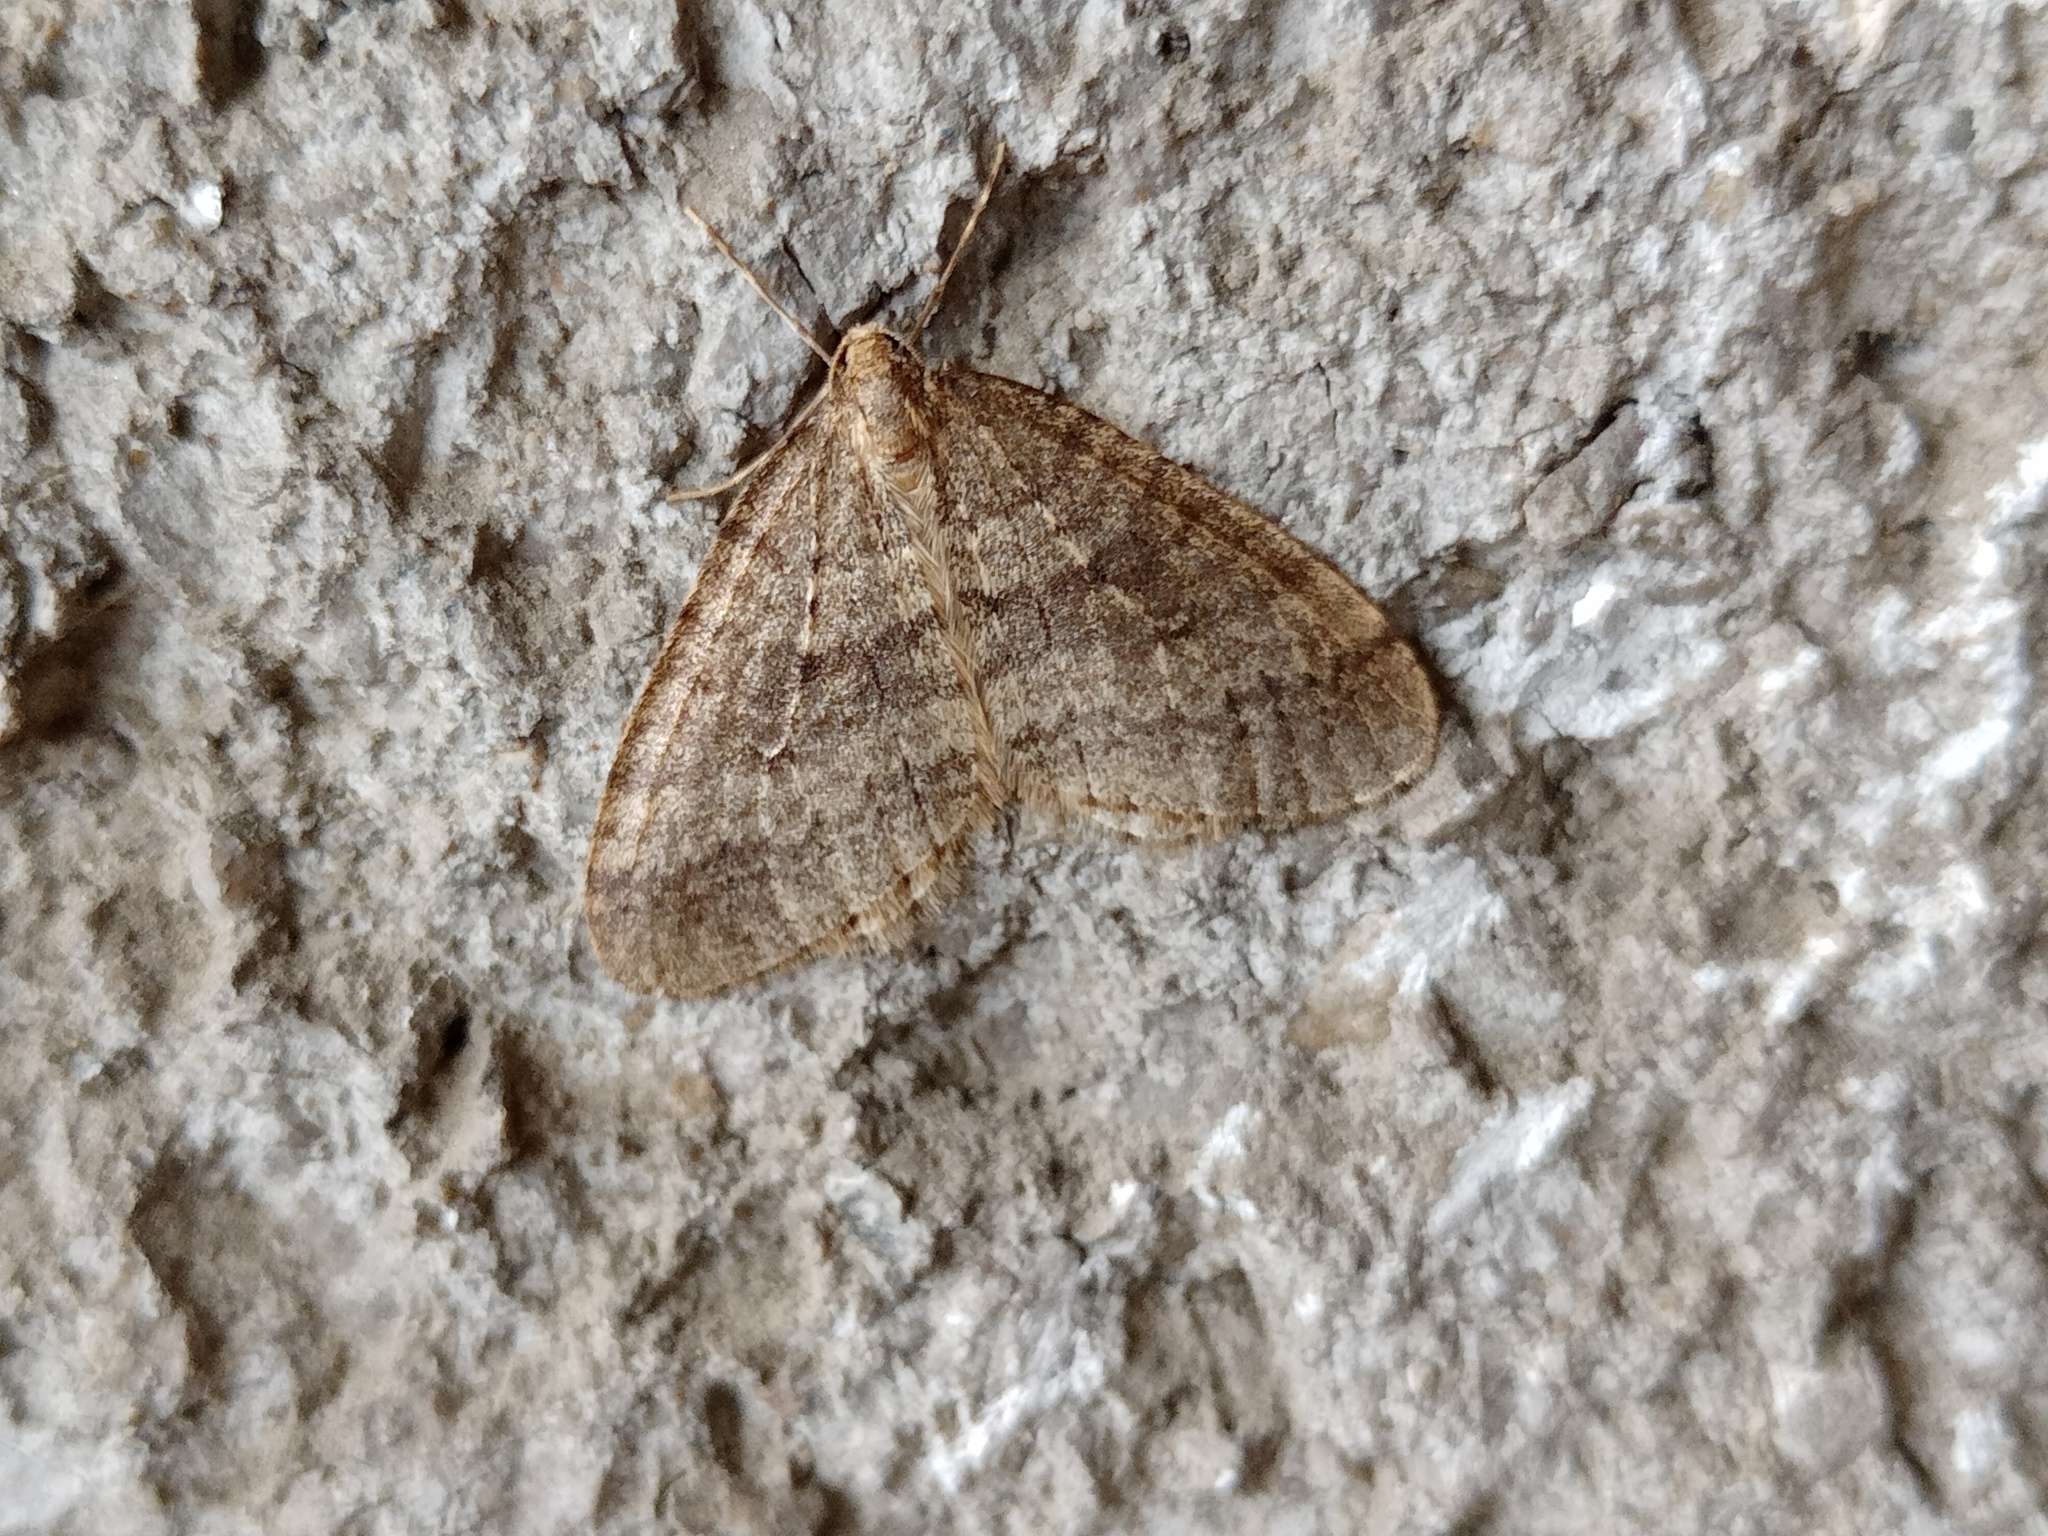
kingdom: Animalia
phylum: Arthropoda
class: Insecta
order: Lepidoptera
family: Geometridae
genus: Operophtera
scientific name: Operophtera brumata
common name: Winter moth
